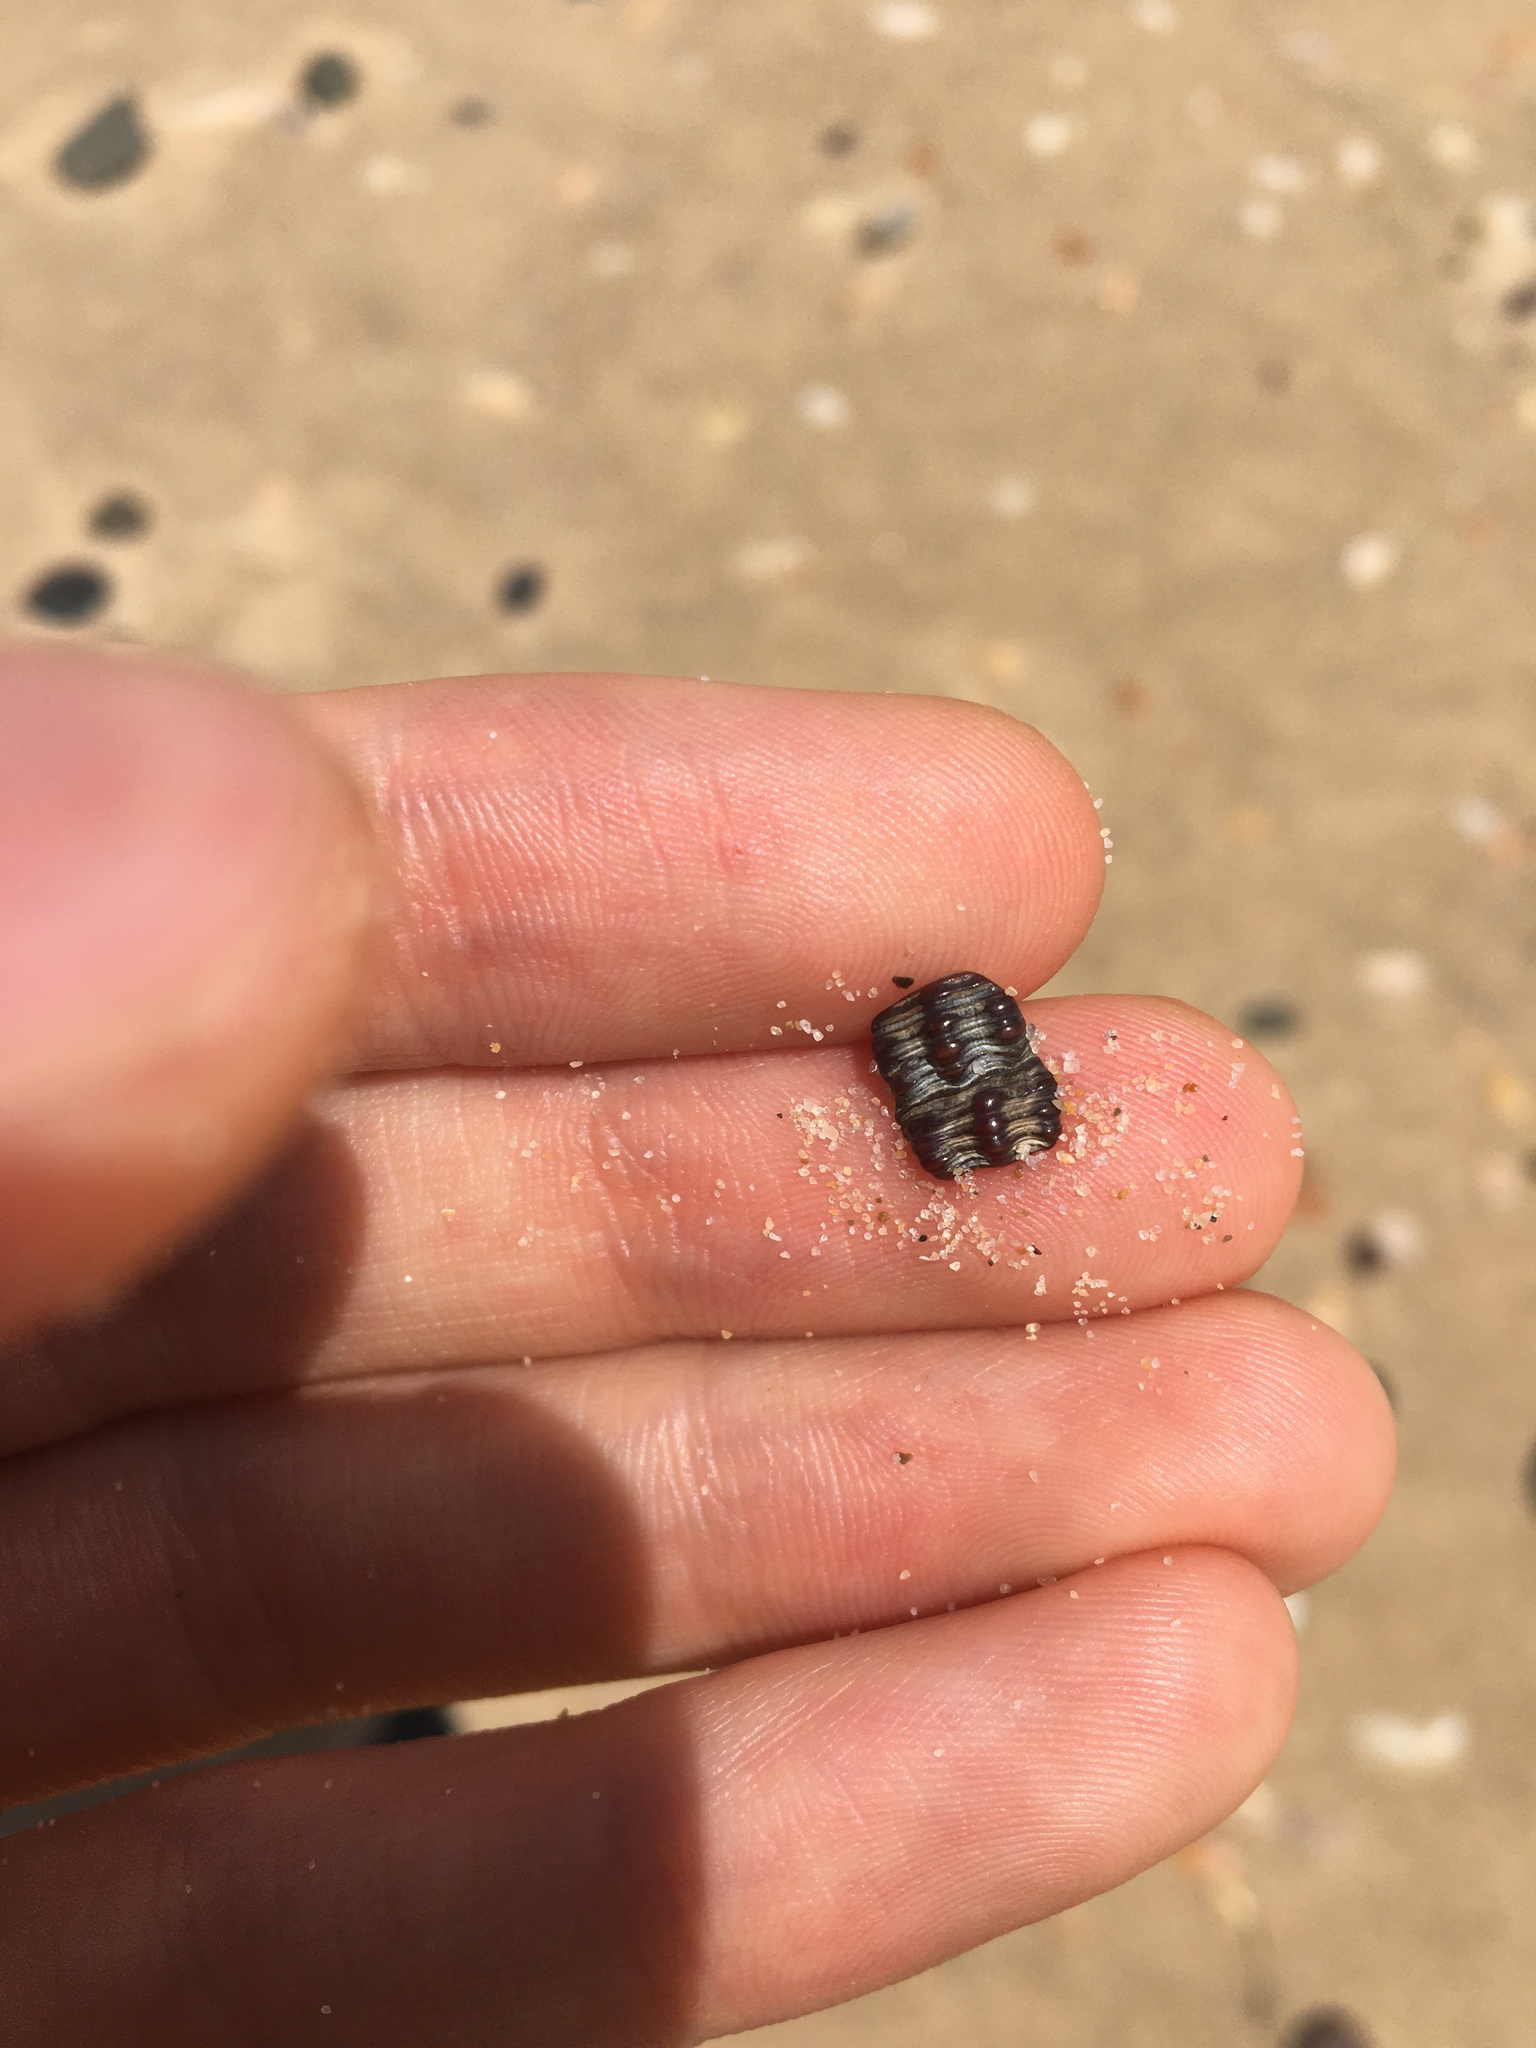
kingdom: Animalia
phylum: Mollusca
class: Gastropoda
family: Batillariidae
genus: Batillaria
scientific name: Batillaria australis
